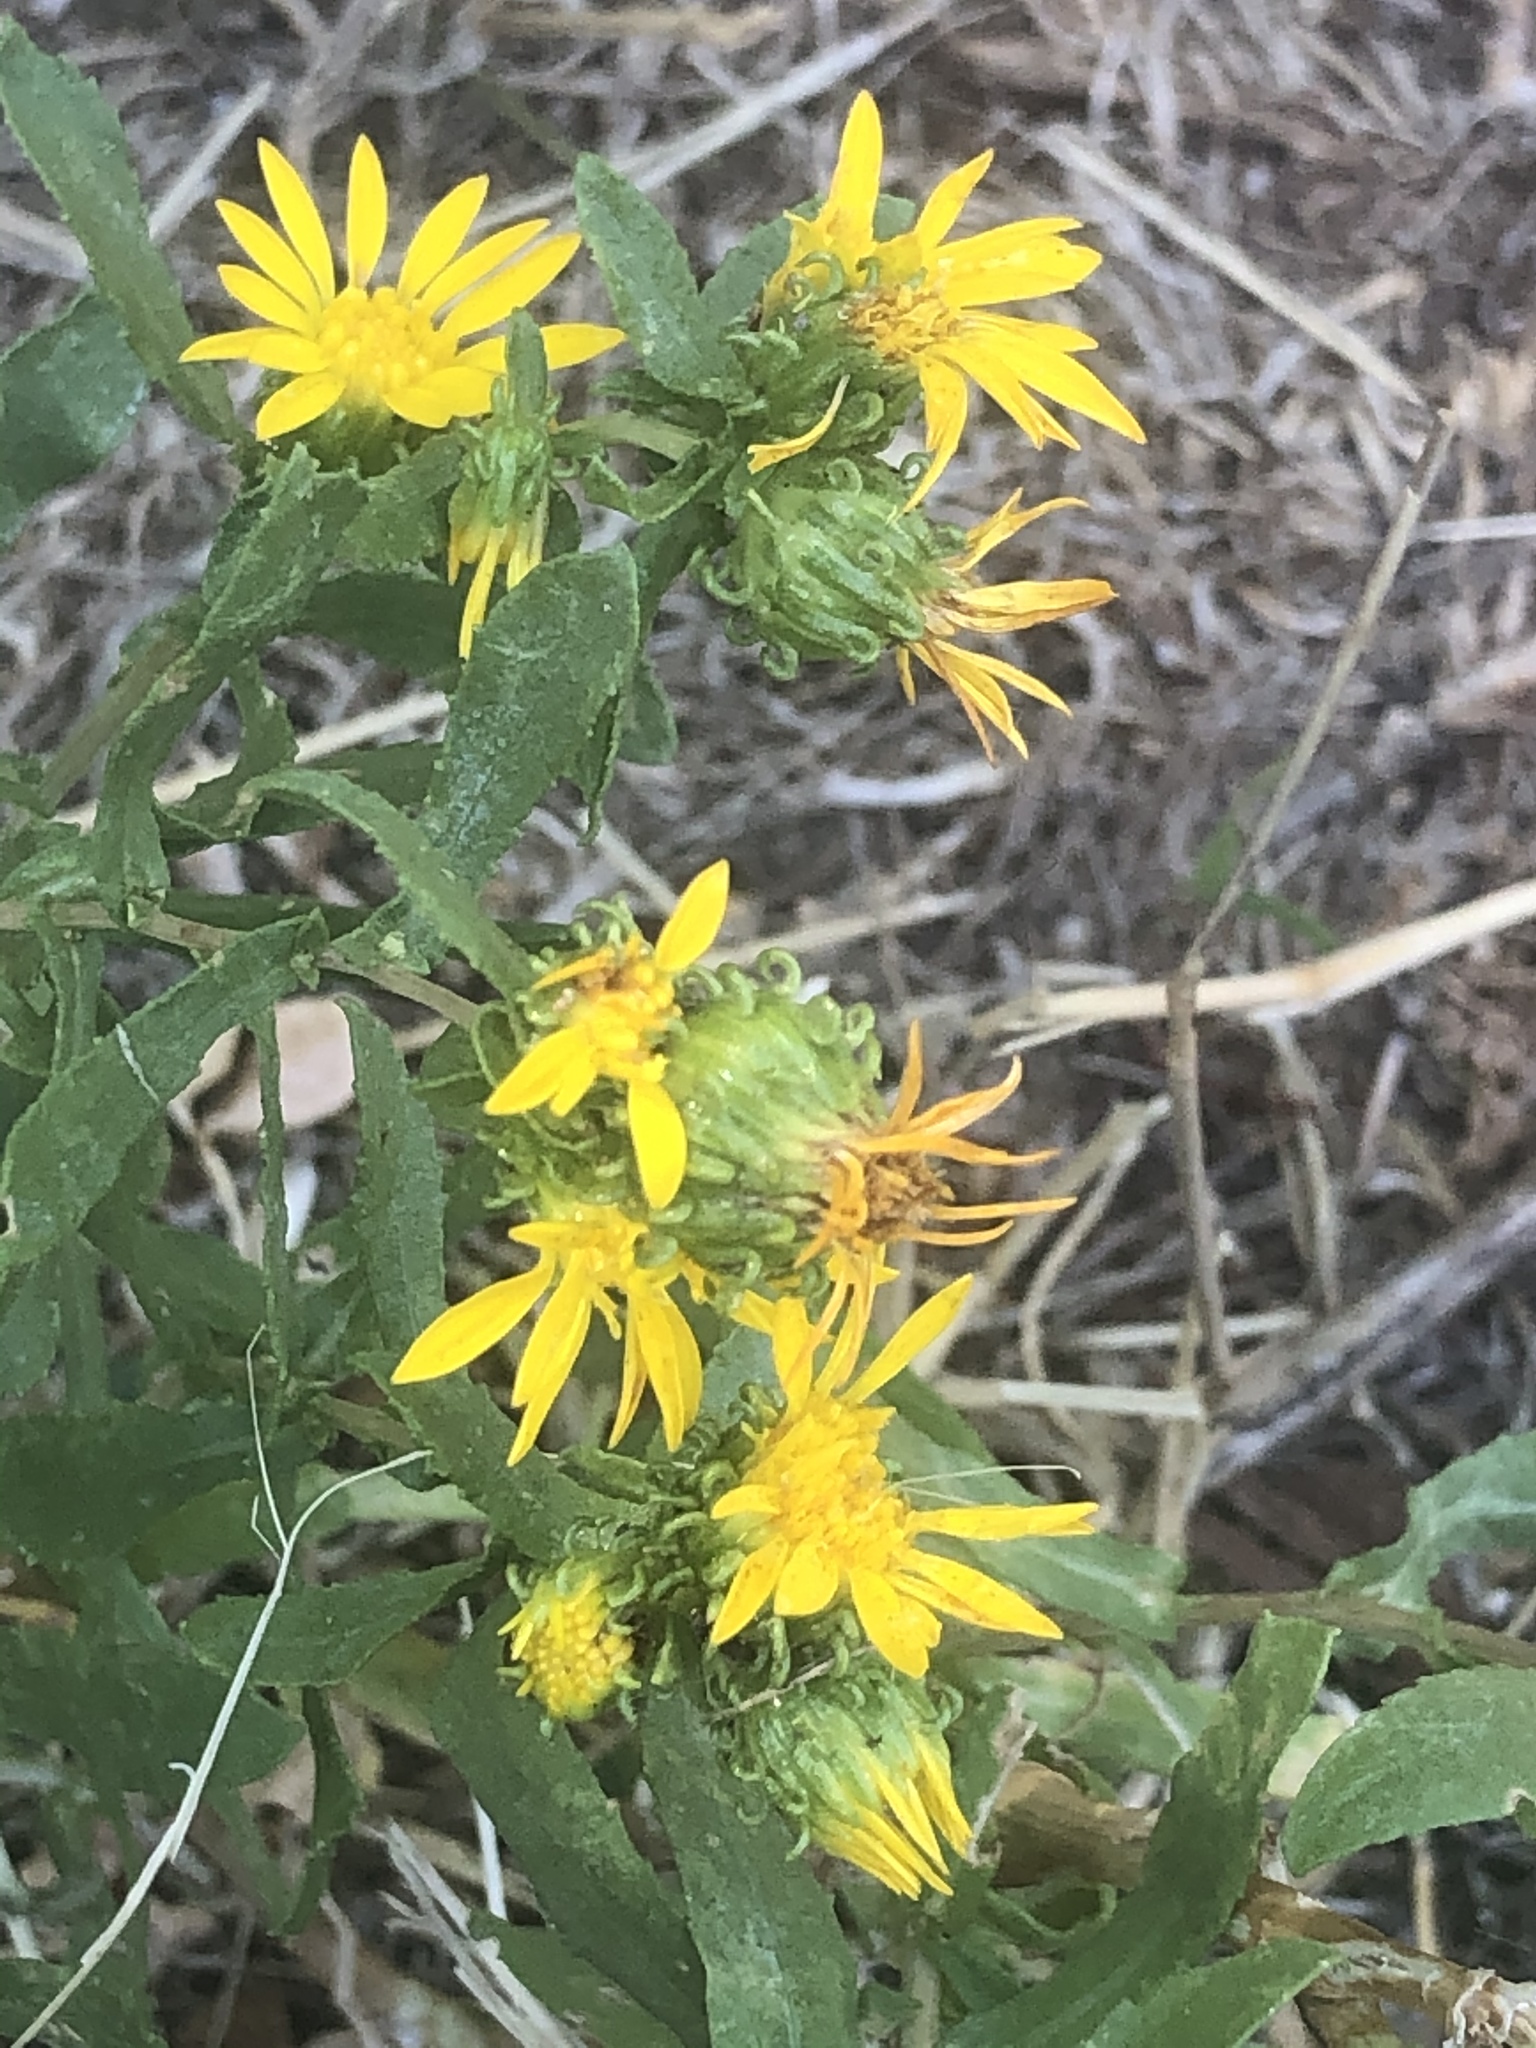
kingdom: Plantae
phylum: Tracheophyta
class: Magnoliopsida
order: Asterales
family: Asteraceae
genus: Grindelia
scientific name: Grindelia squarrosa
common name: Curly-cup gumweed
